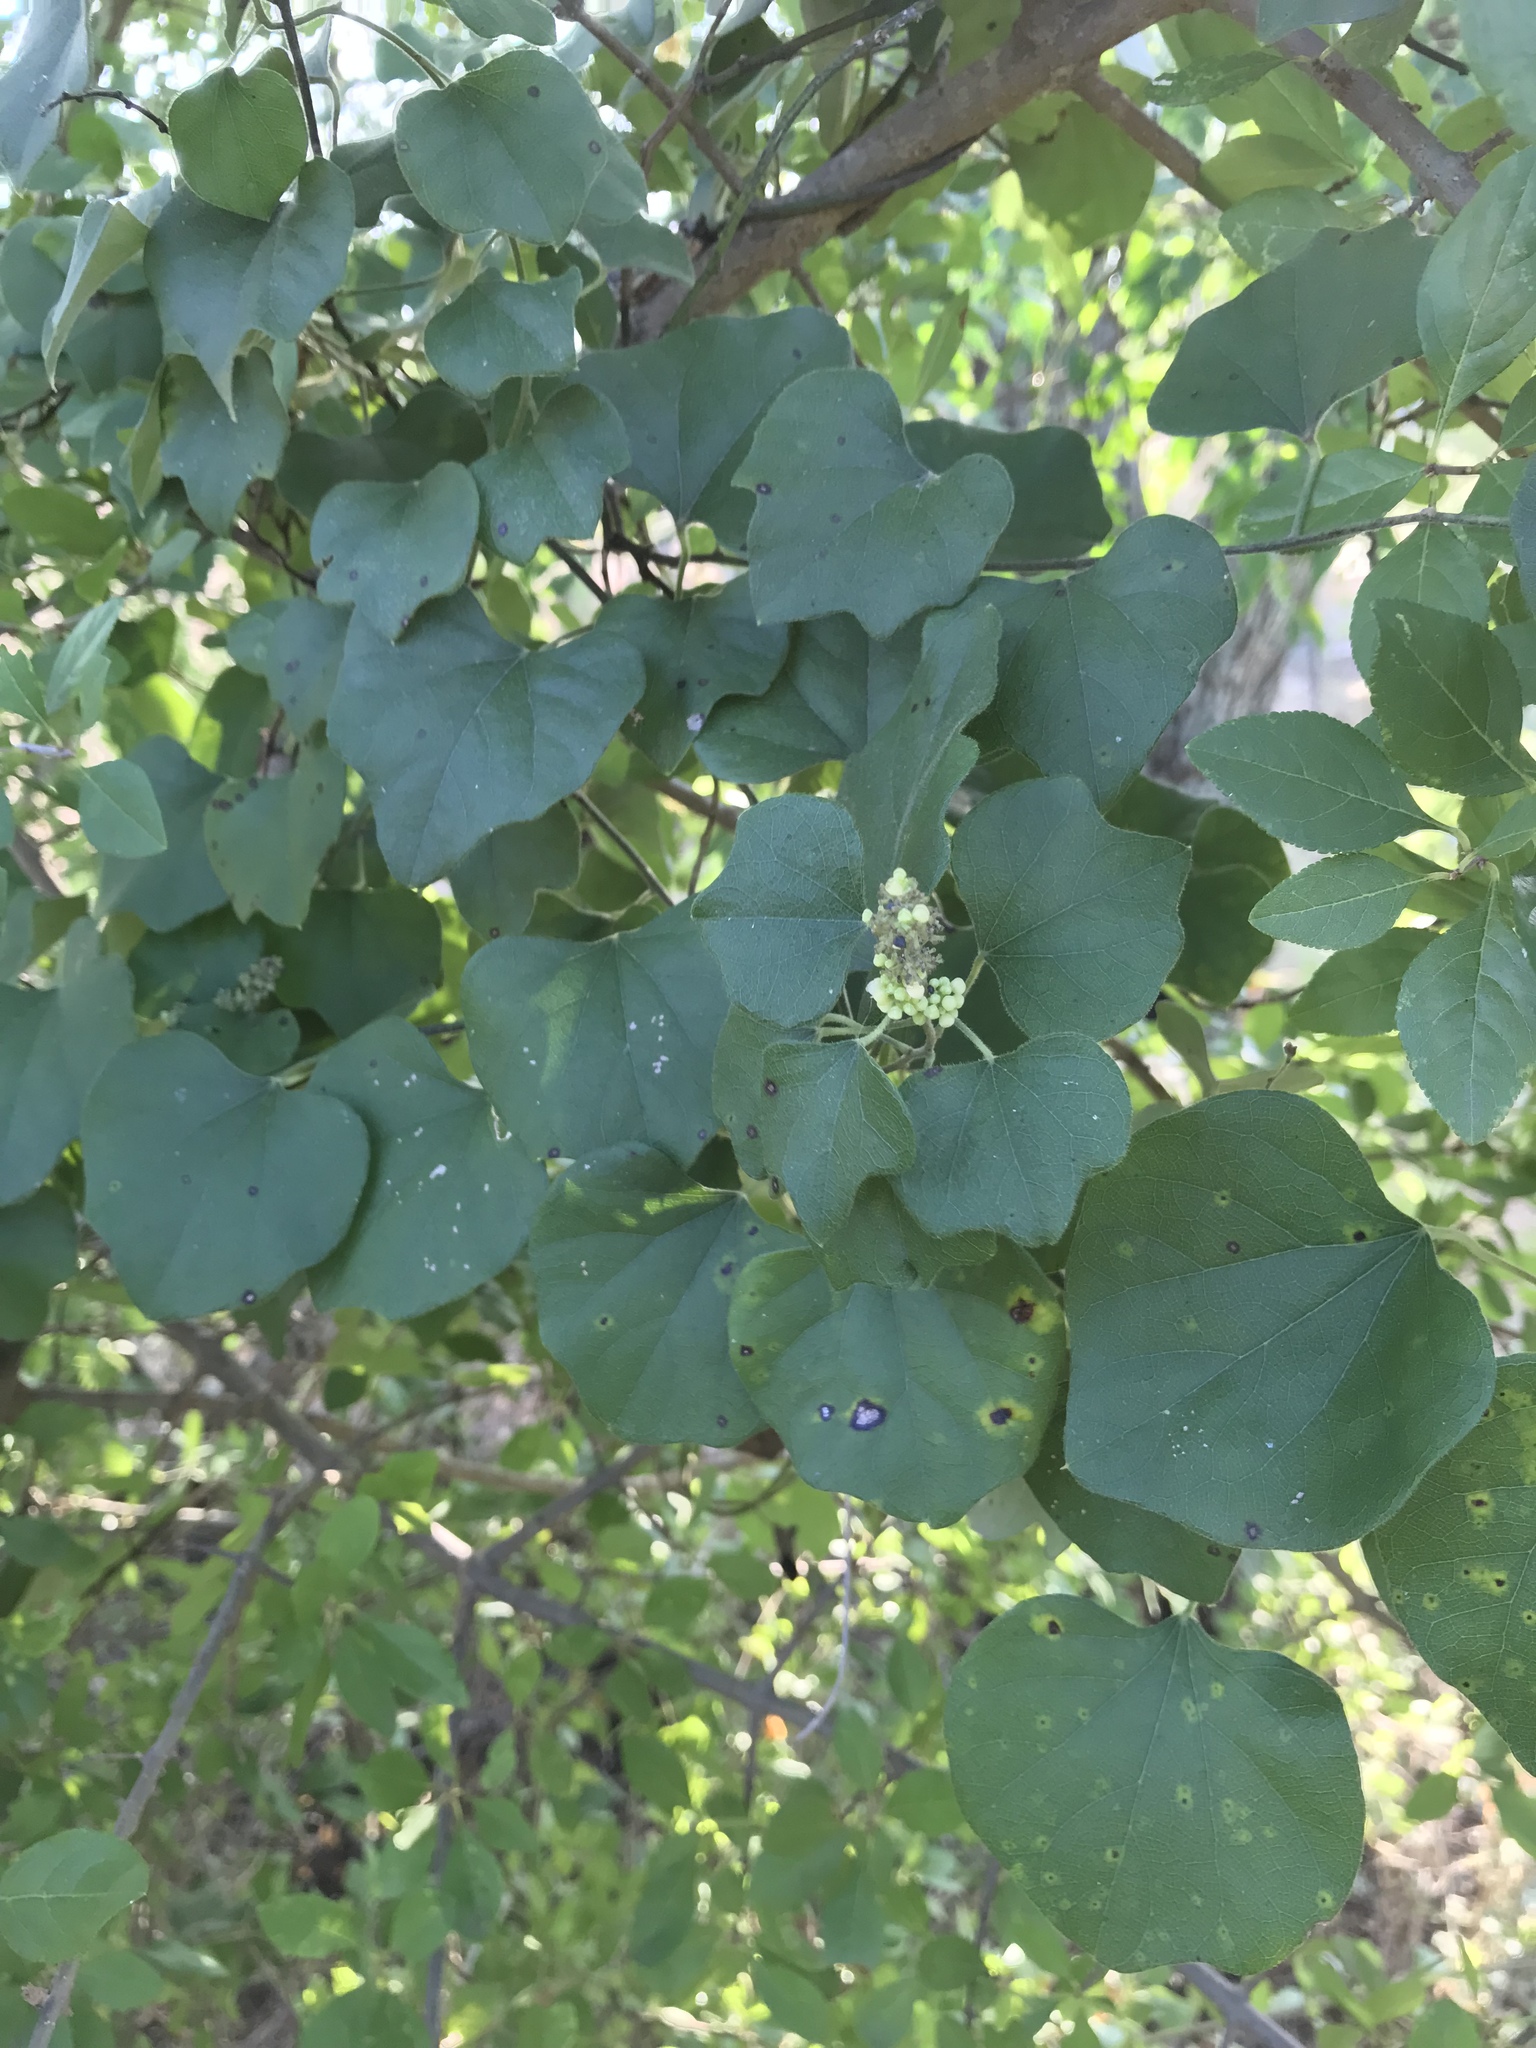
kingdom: Plantae
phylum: Tracheophyta
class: Magnoliopsida
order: Ranunculales
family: Menispermaceae
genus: Cocculus
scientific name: Cocculus carolinus
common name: Carolina moonseed
